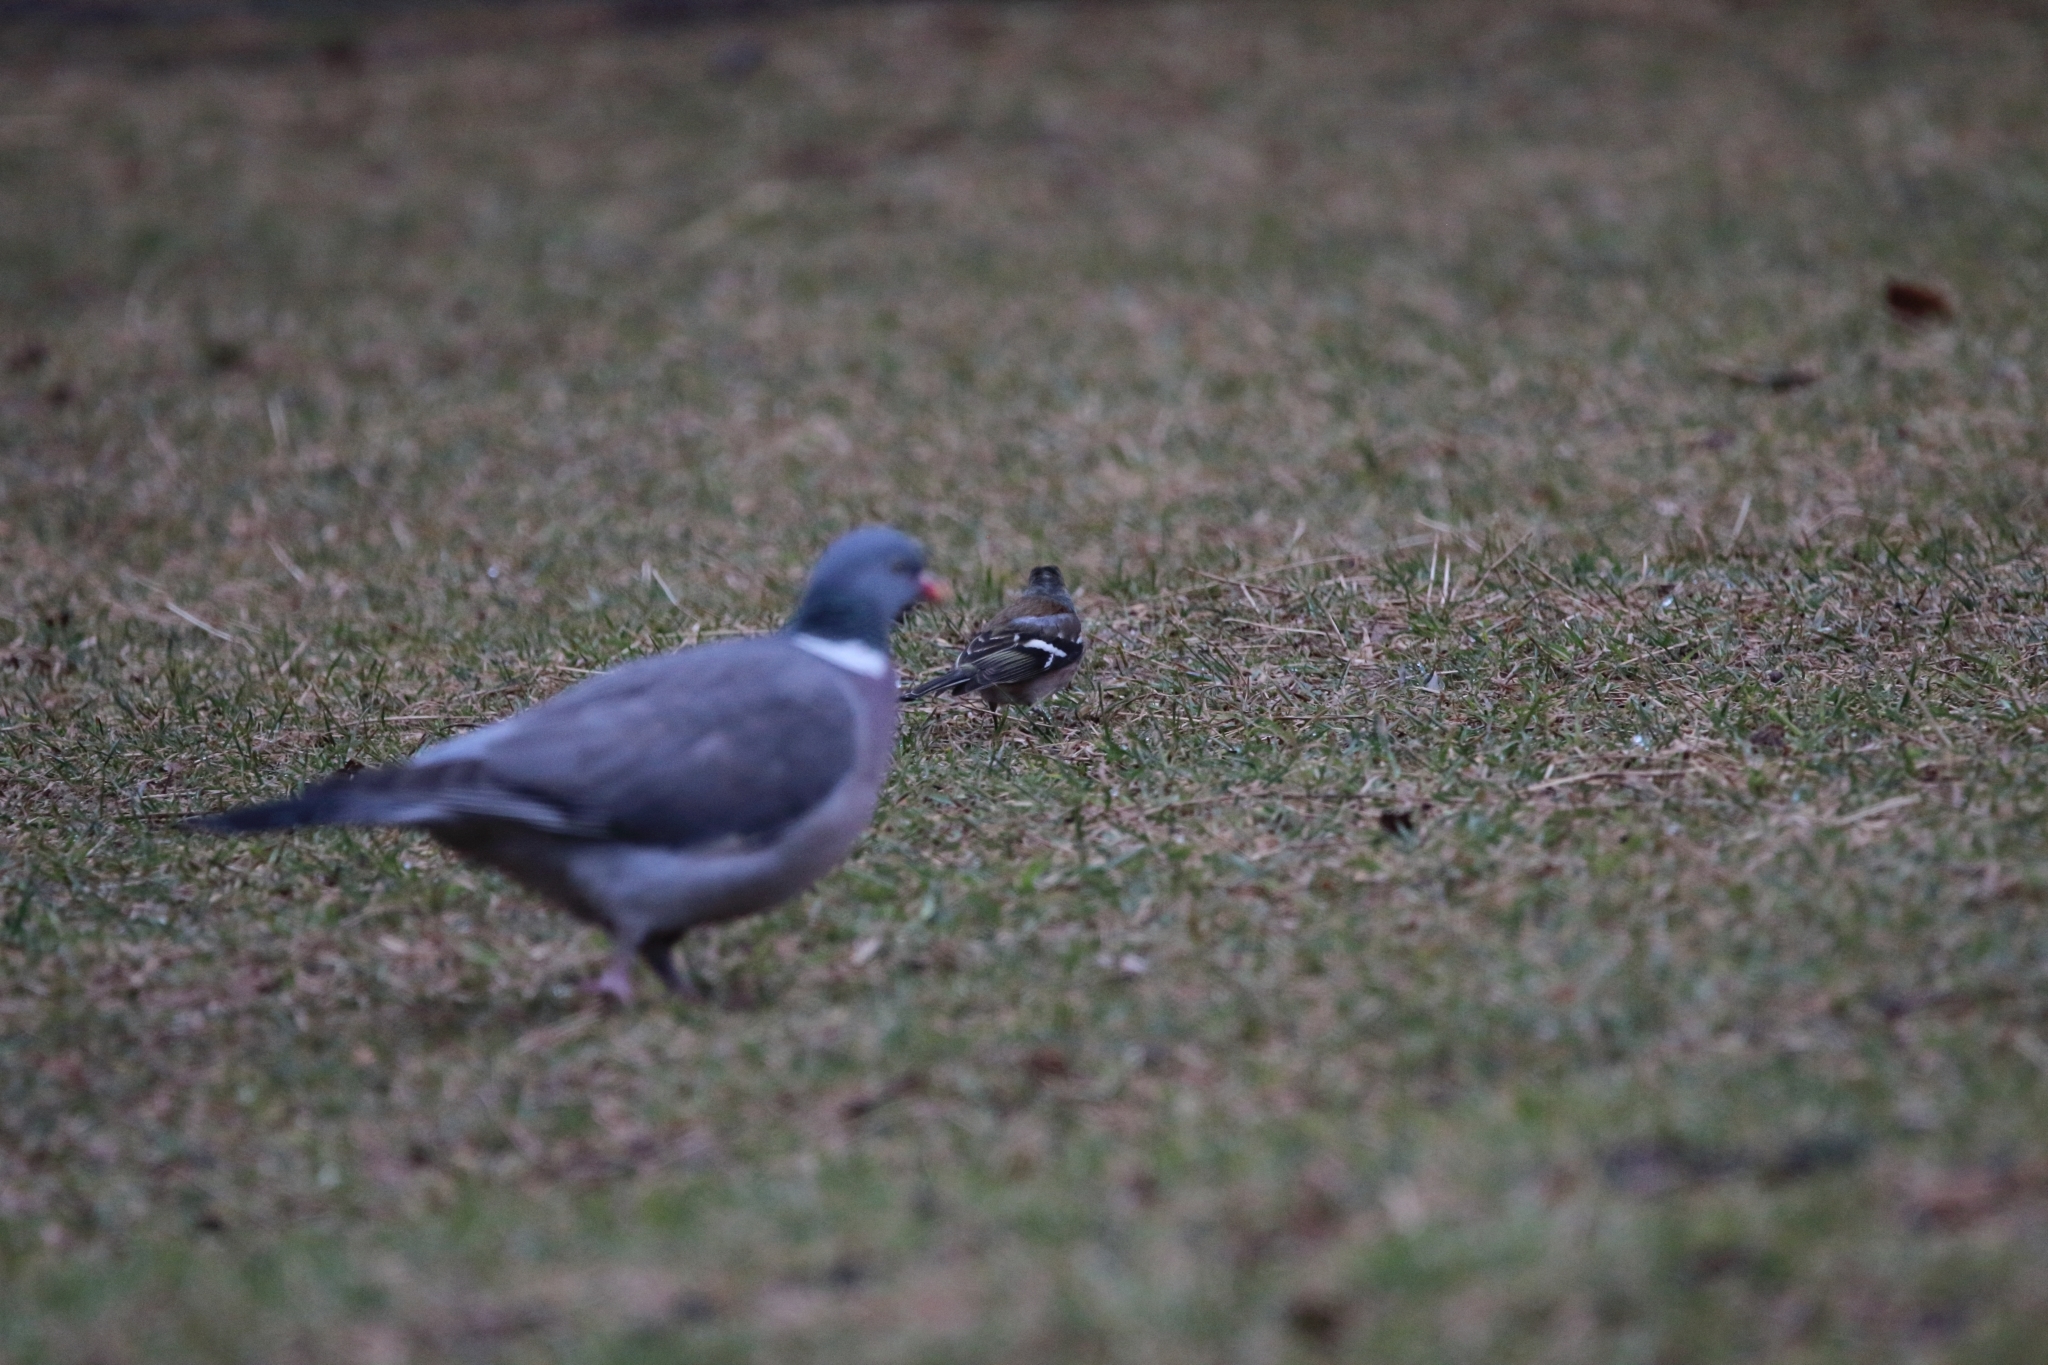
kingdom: Animalia
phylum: Chordata
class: Aves
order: Passeriformes
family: Fringillidae
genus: Fringilla
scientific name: Fringilla coelebs
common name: Common chaffinch
